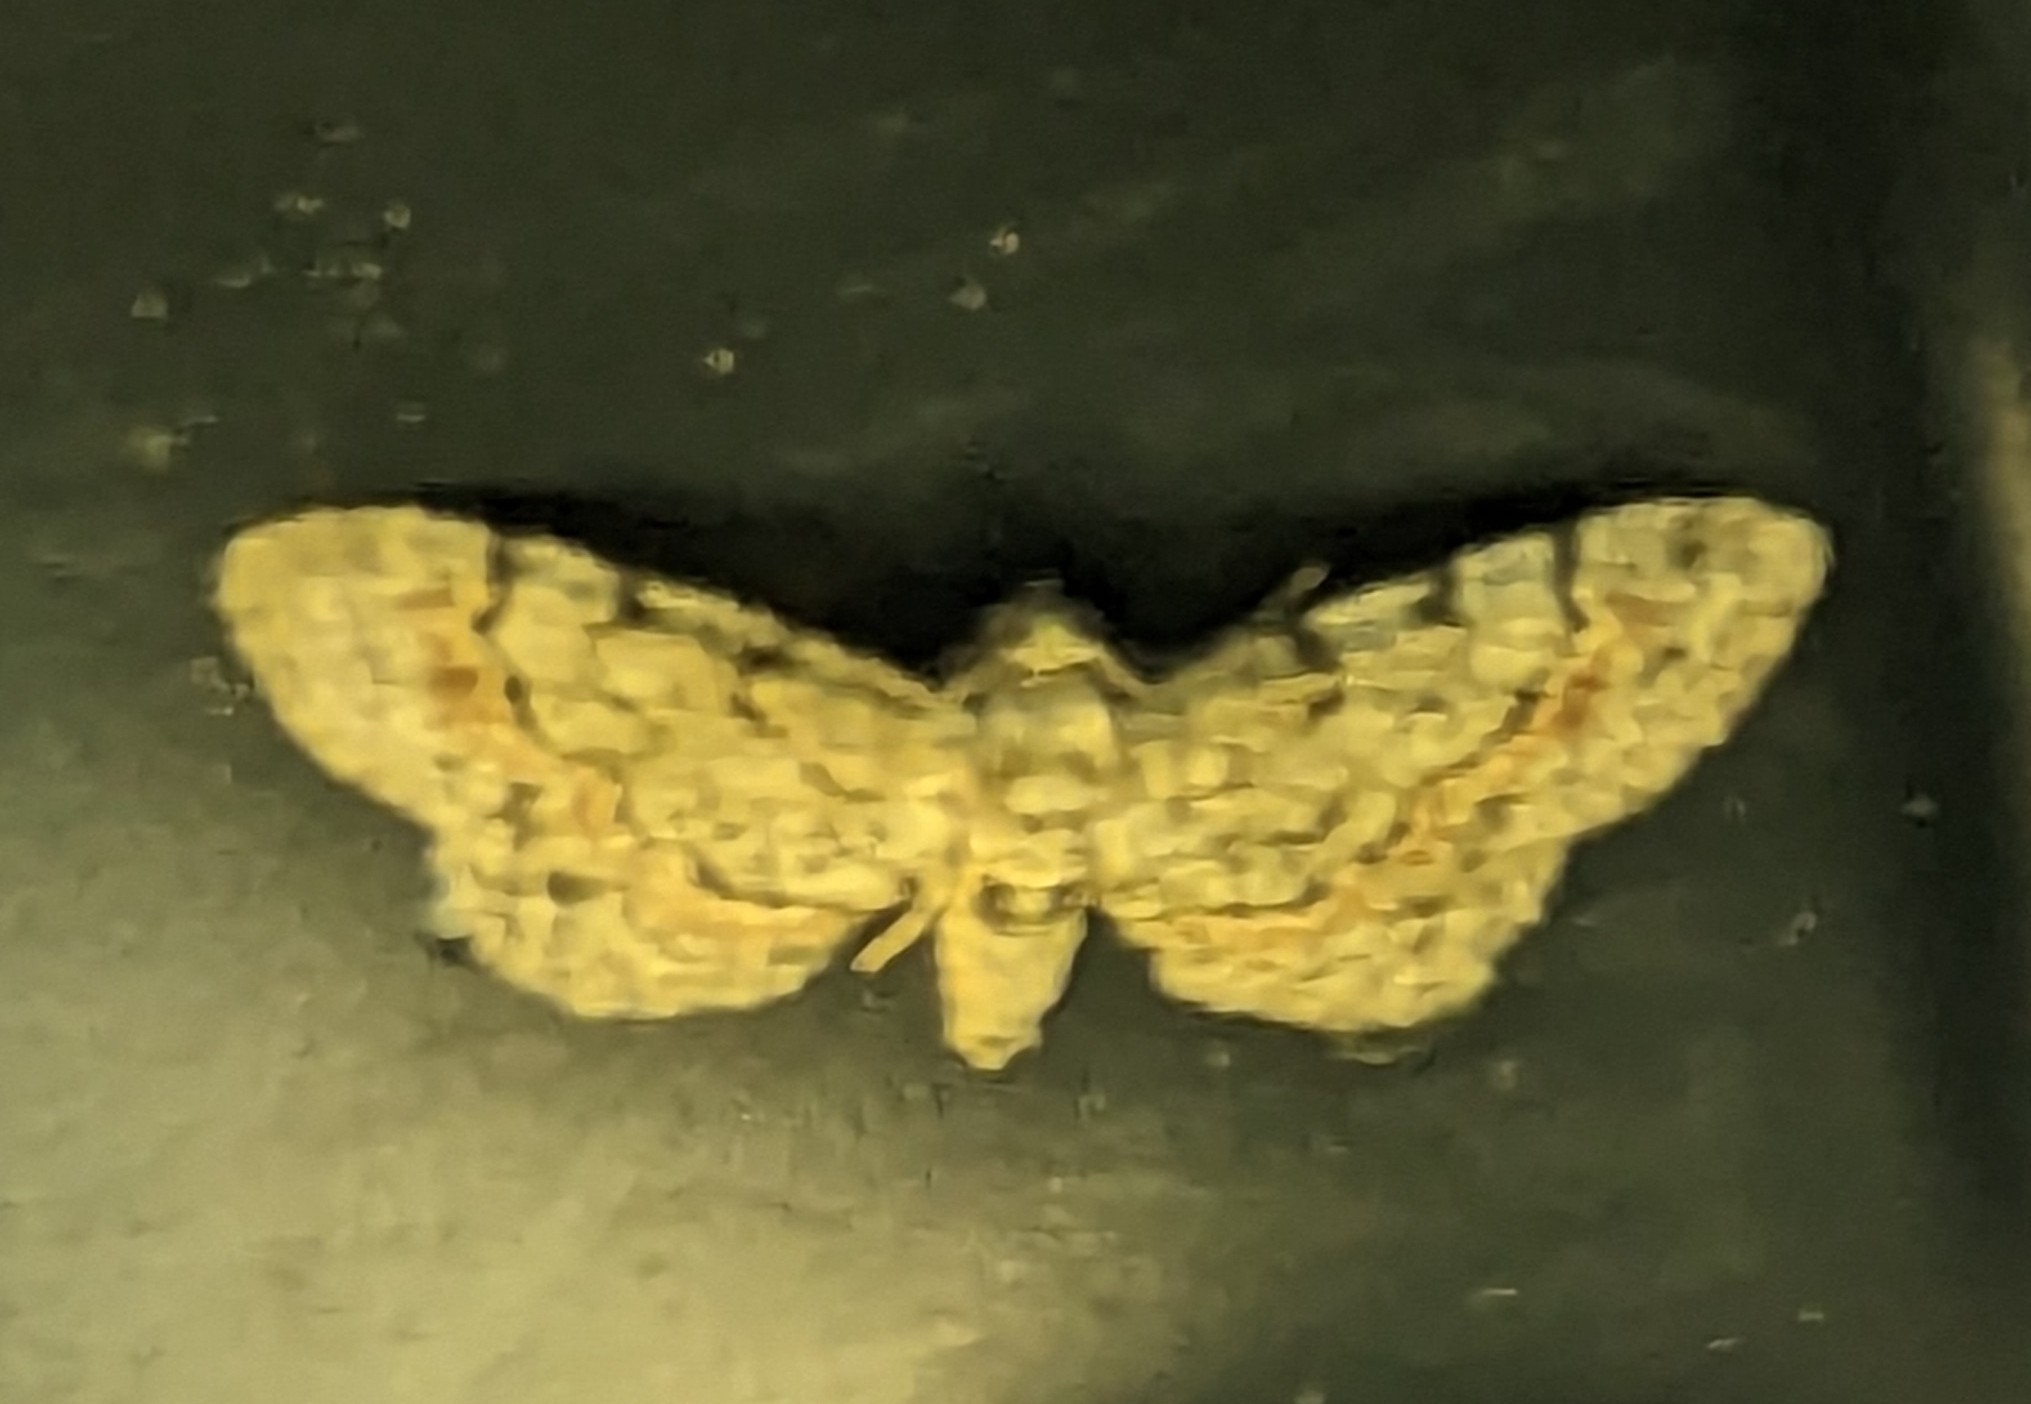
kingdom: Animalia
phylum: Arthropoda
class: Insecta
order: Lepidoptera
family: Geometridae
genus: Glenoides
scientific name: Glenoides texanaria
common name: Texas gray
